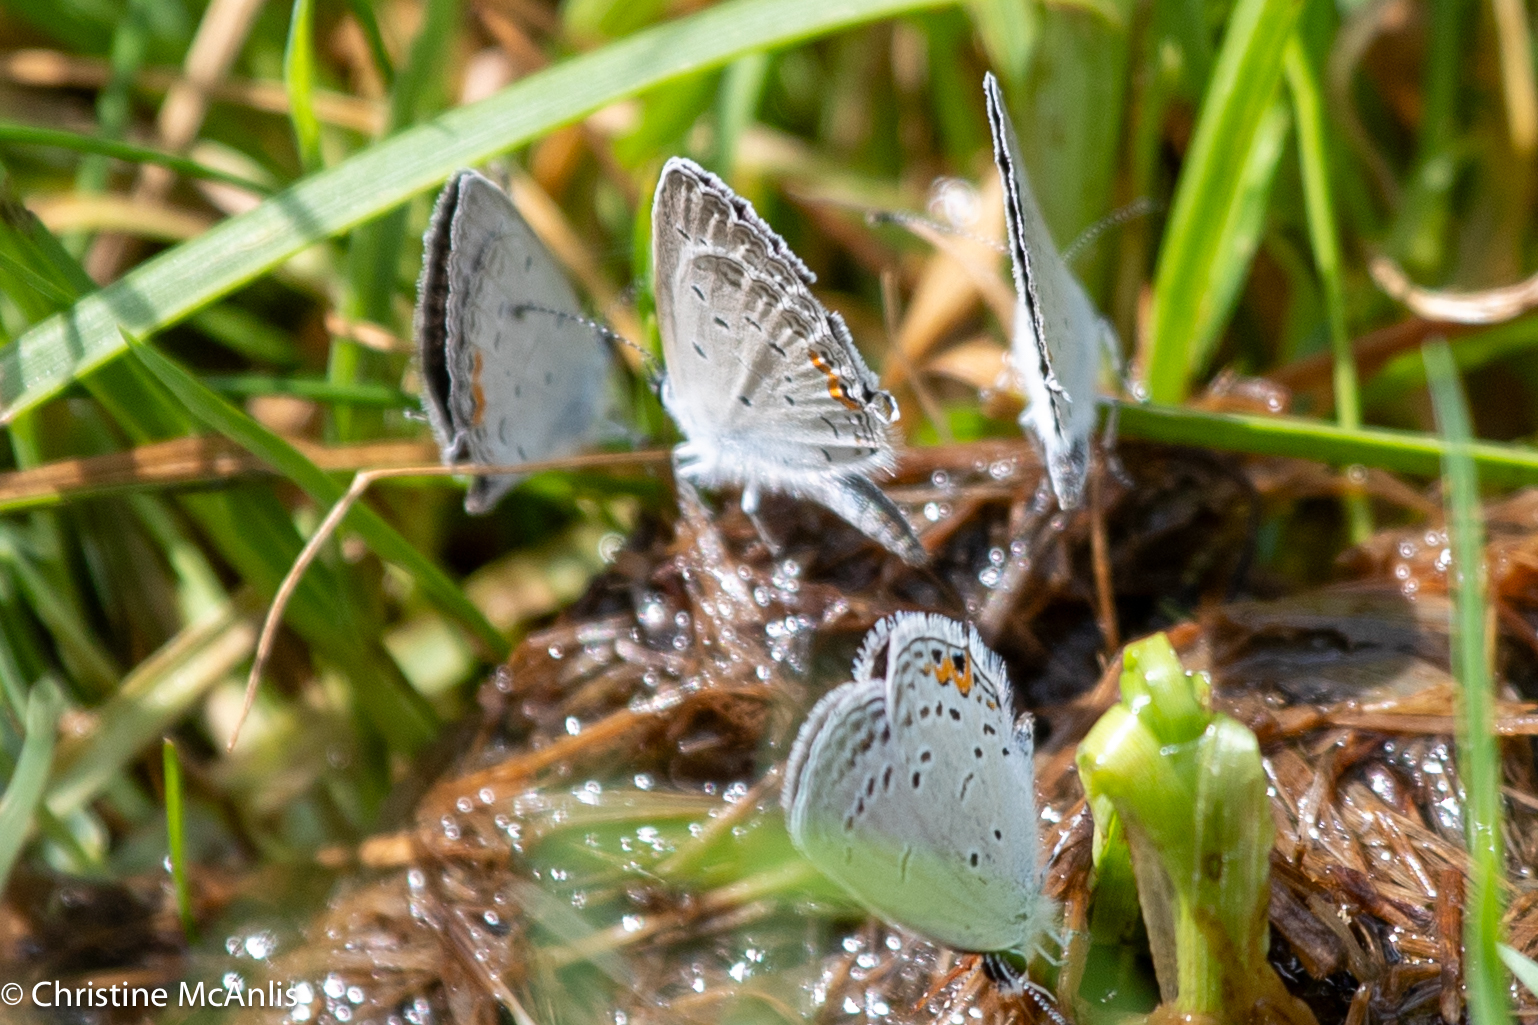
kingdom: Animalia
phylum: Arthropoda
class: Insecta
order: Lepidoptera
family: Lycaenidae
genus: Elkalyce
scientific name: Elkalyce comyntas
